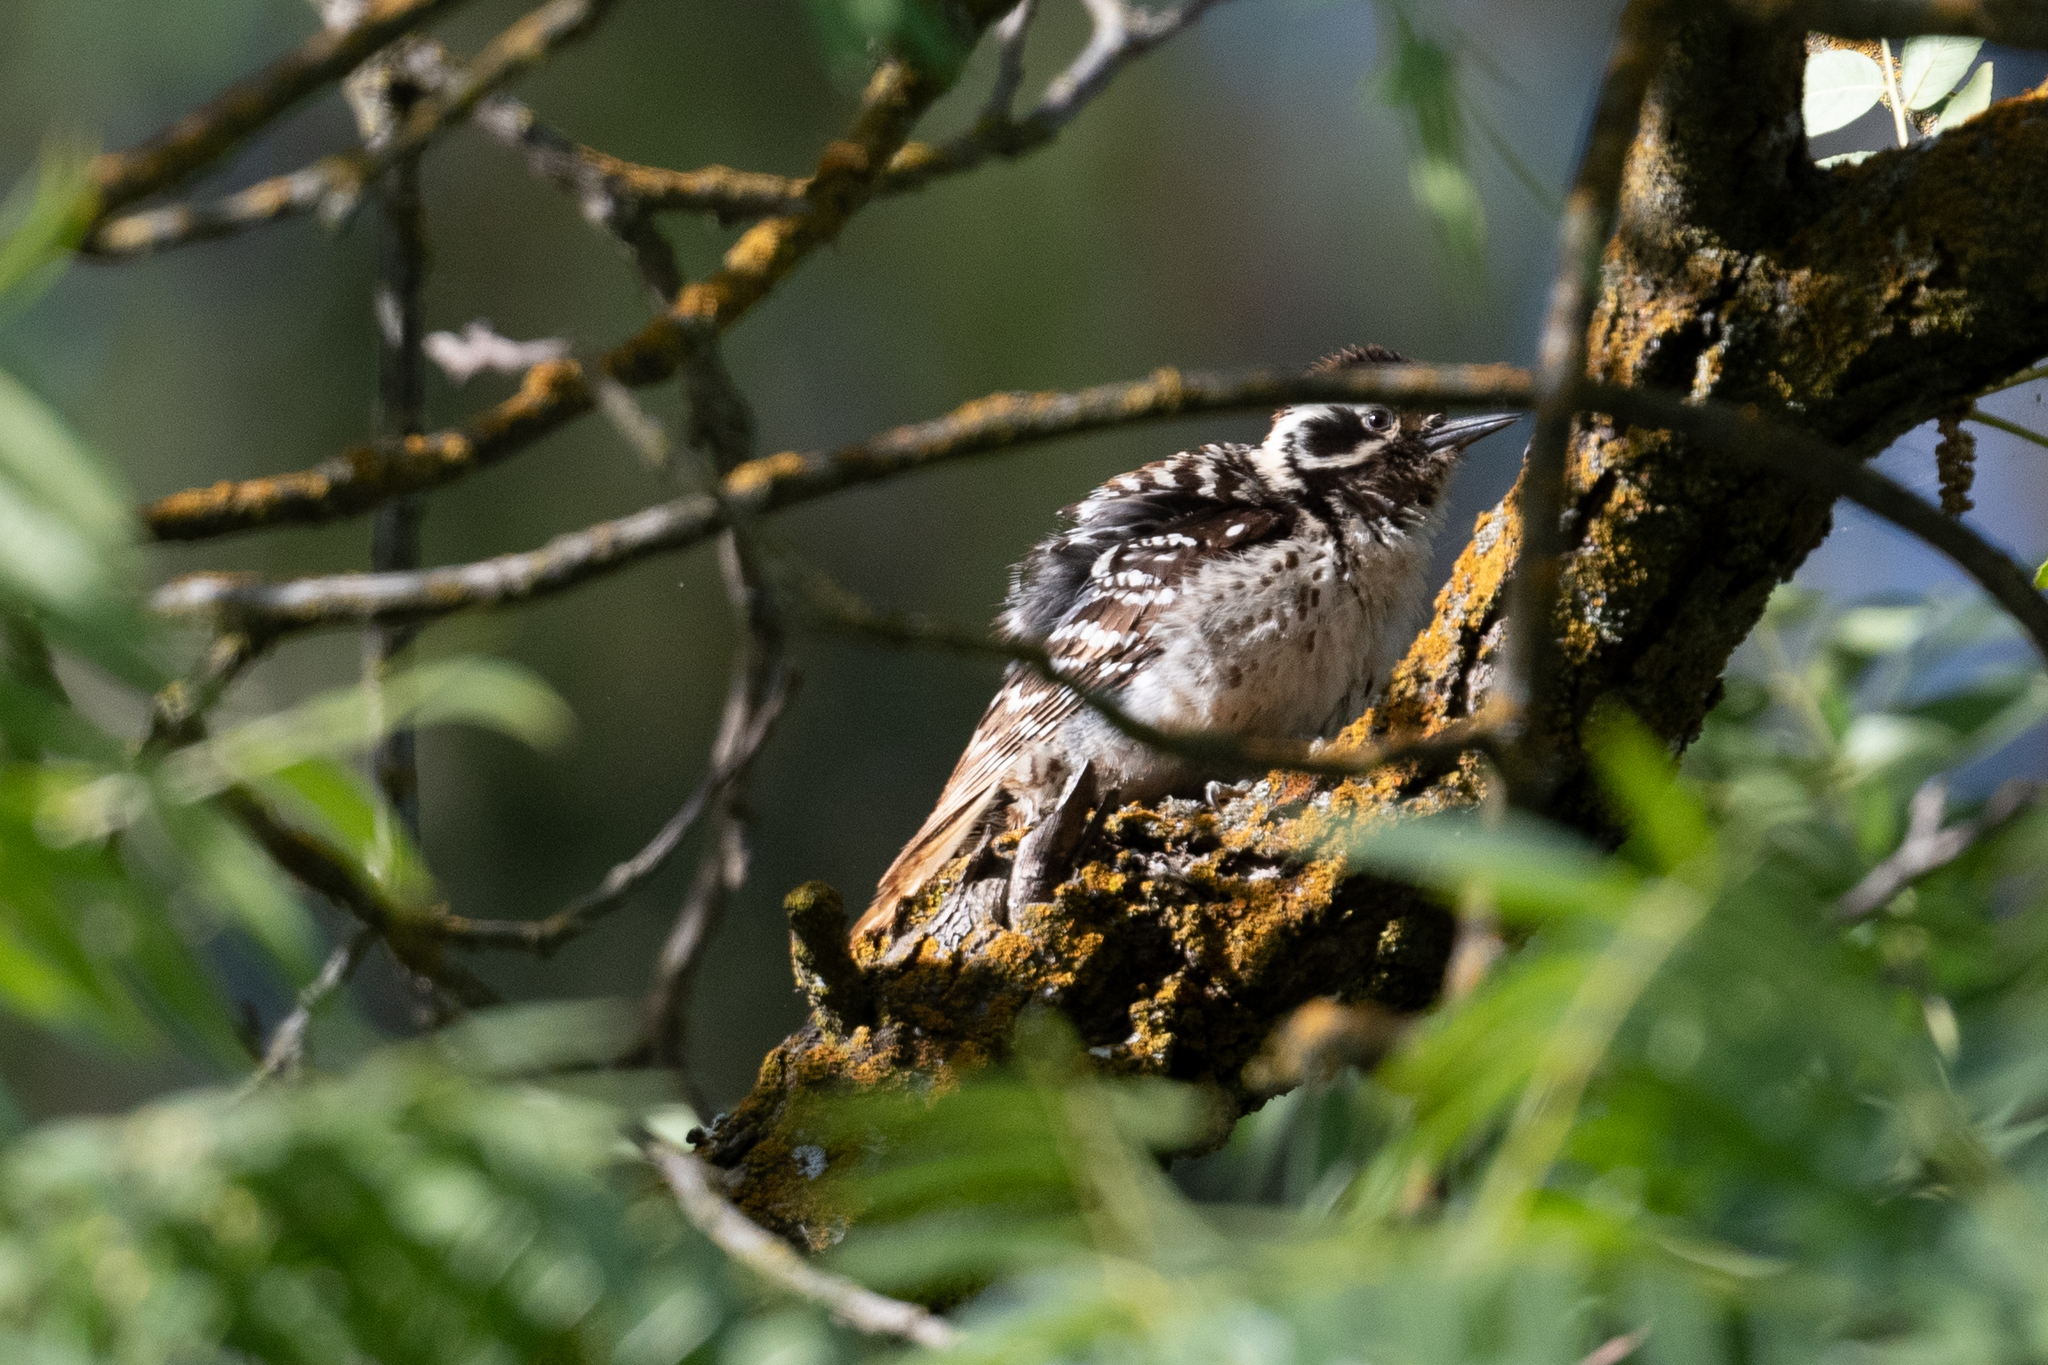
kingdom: Animalia
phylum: Chordata
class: Aves
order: Piciformes
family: Picidae
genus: Dryobates
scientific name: Dryobates nuttallii
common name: Nuttall's woodpecker
